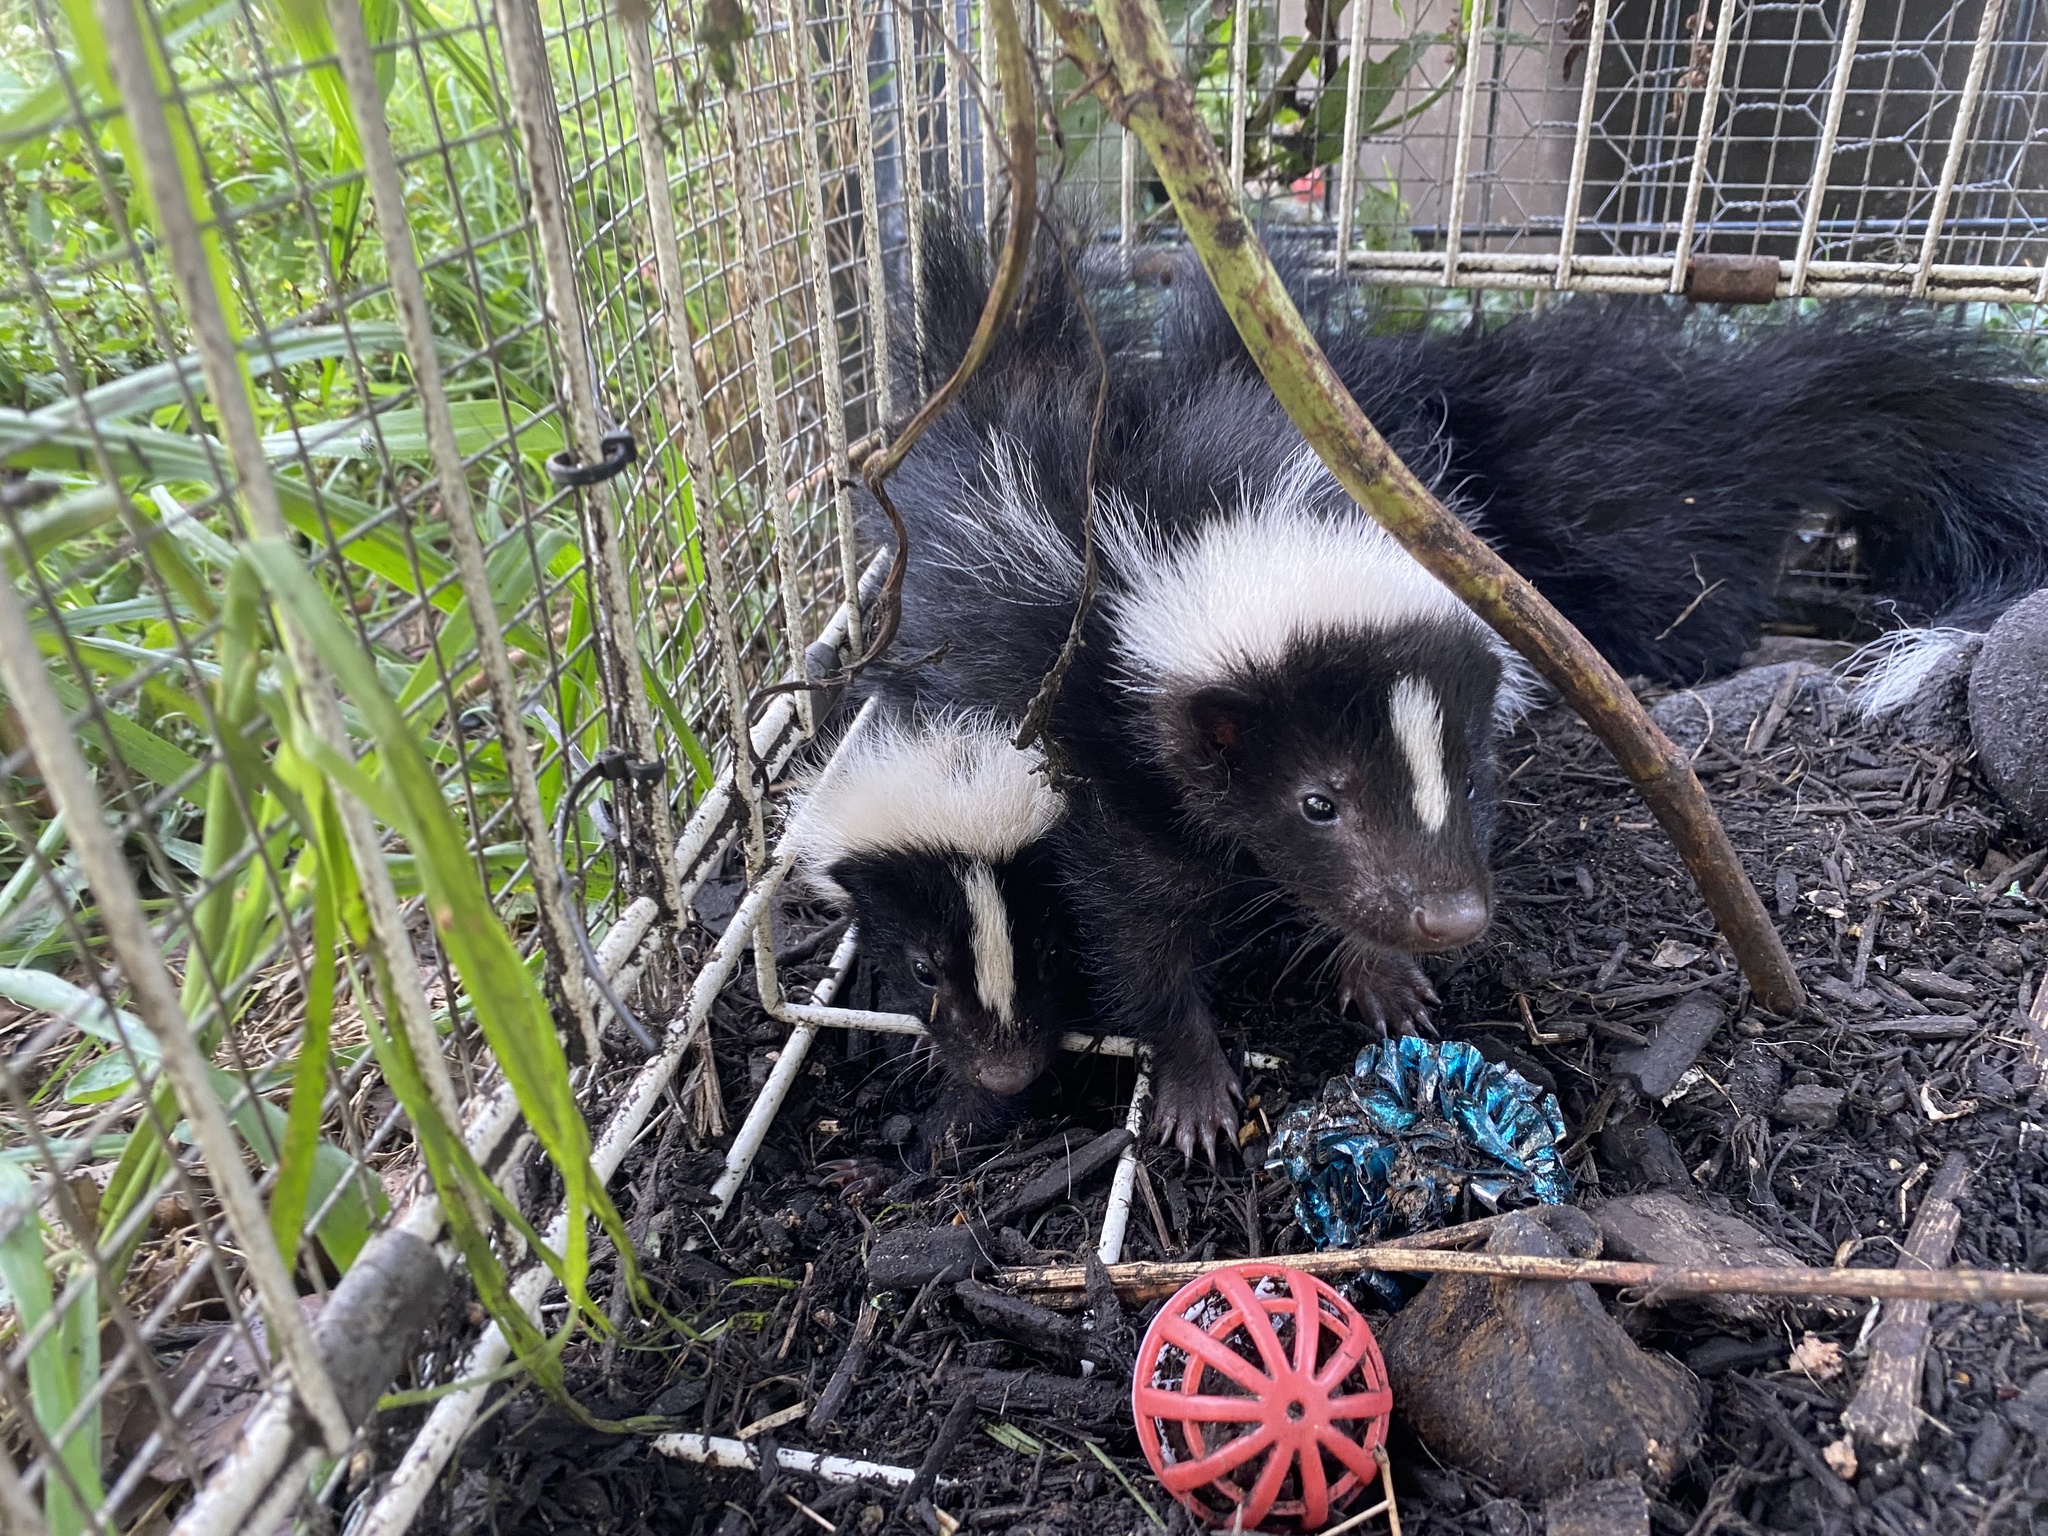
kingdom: Animalia
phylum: Chordata
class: Mammalia
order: Carnivora
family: Mephitidae
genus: Mephitis
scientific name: Mephitis mephitis
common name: Striped skunk
